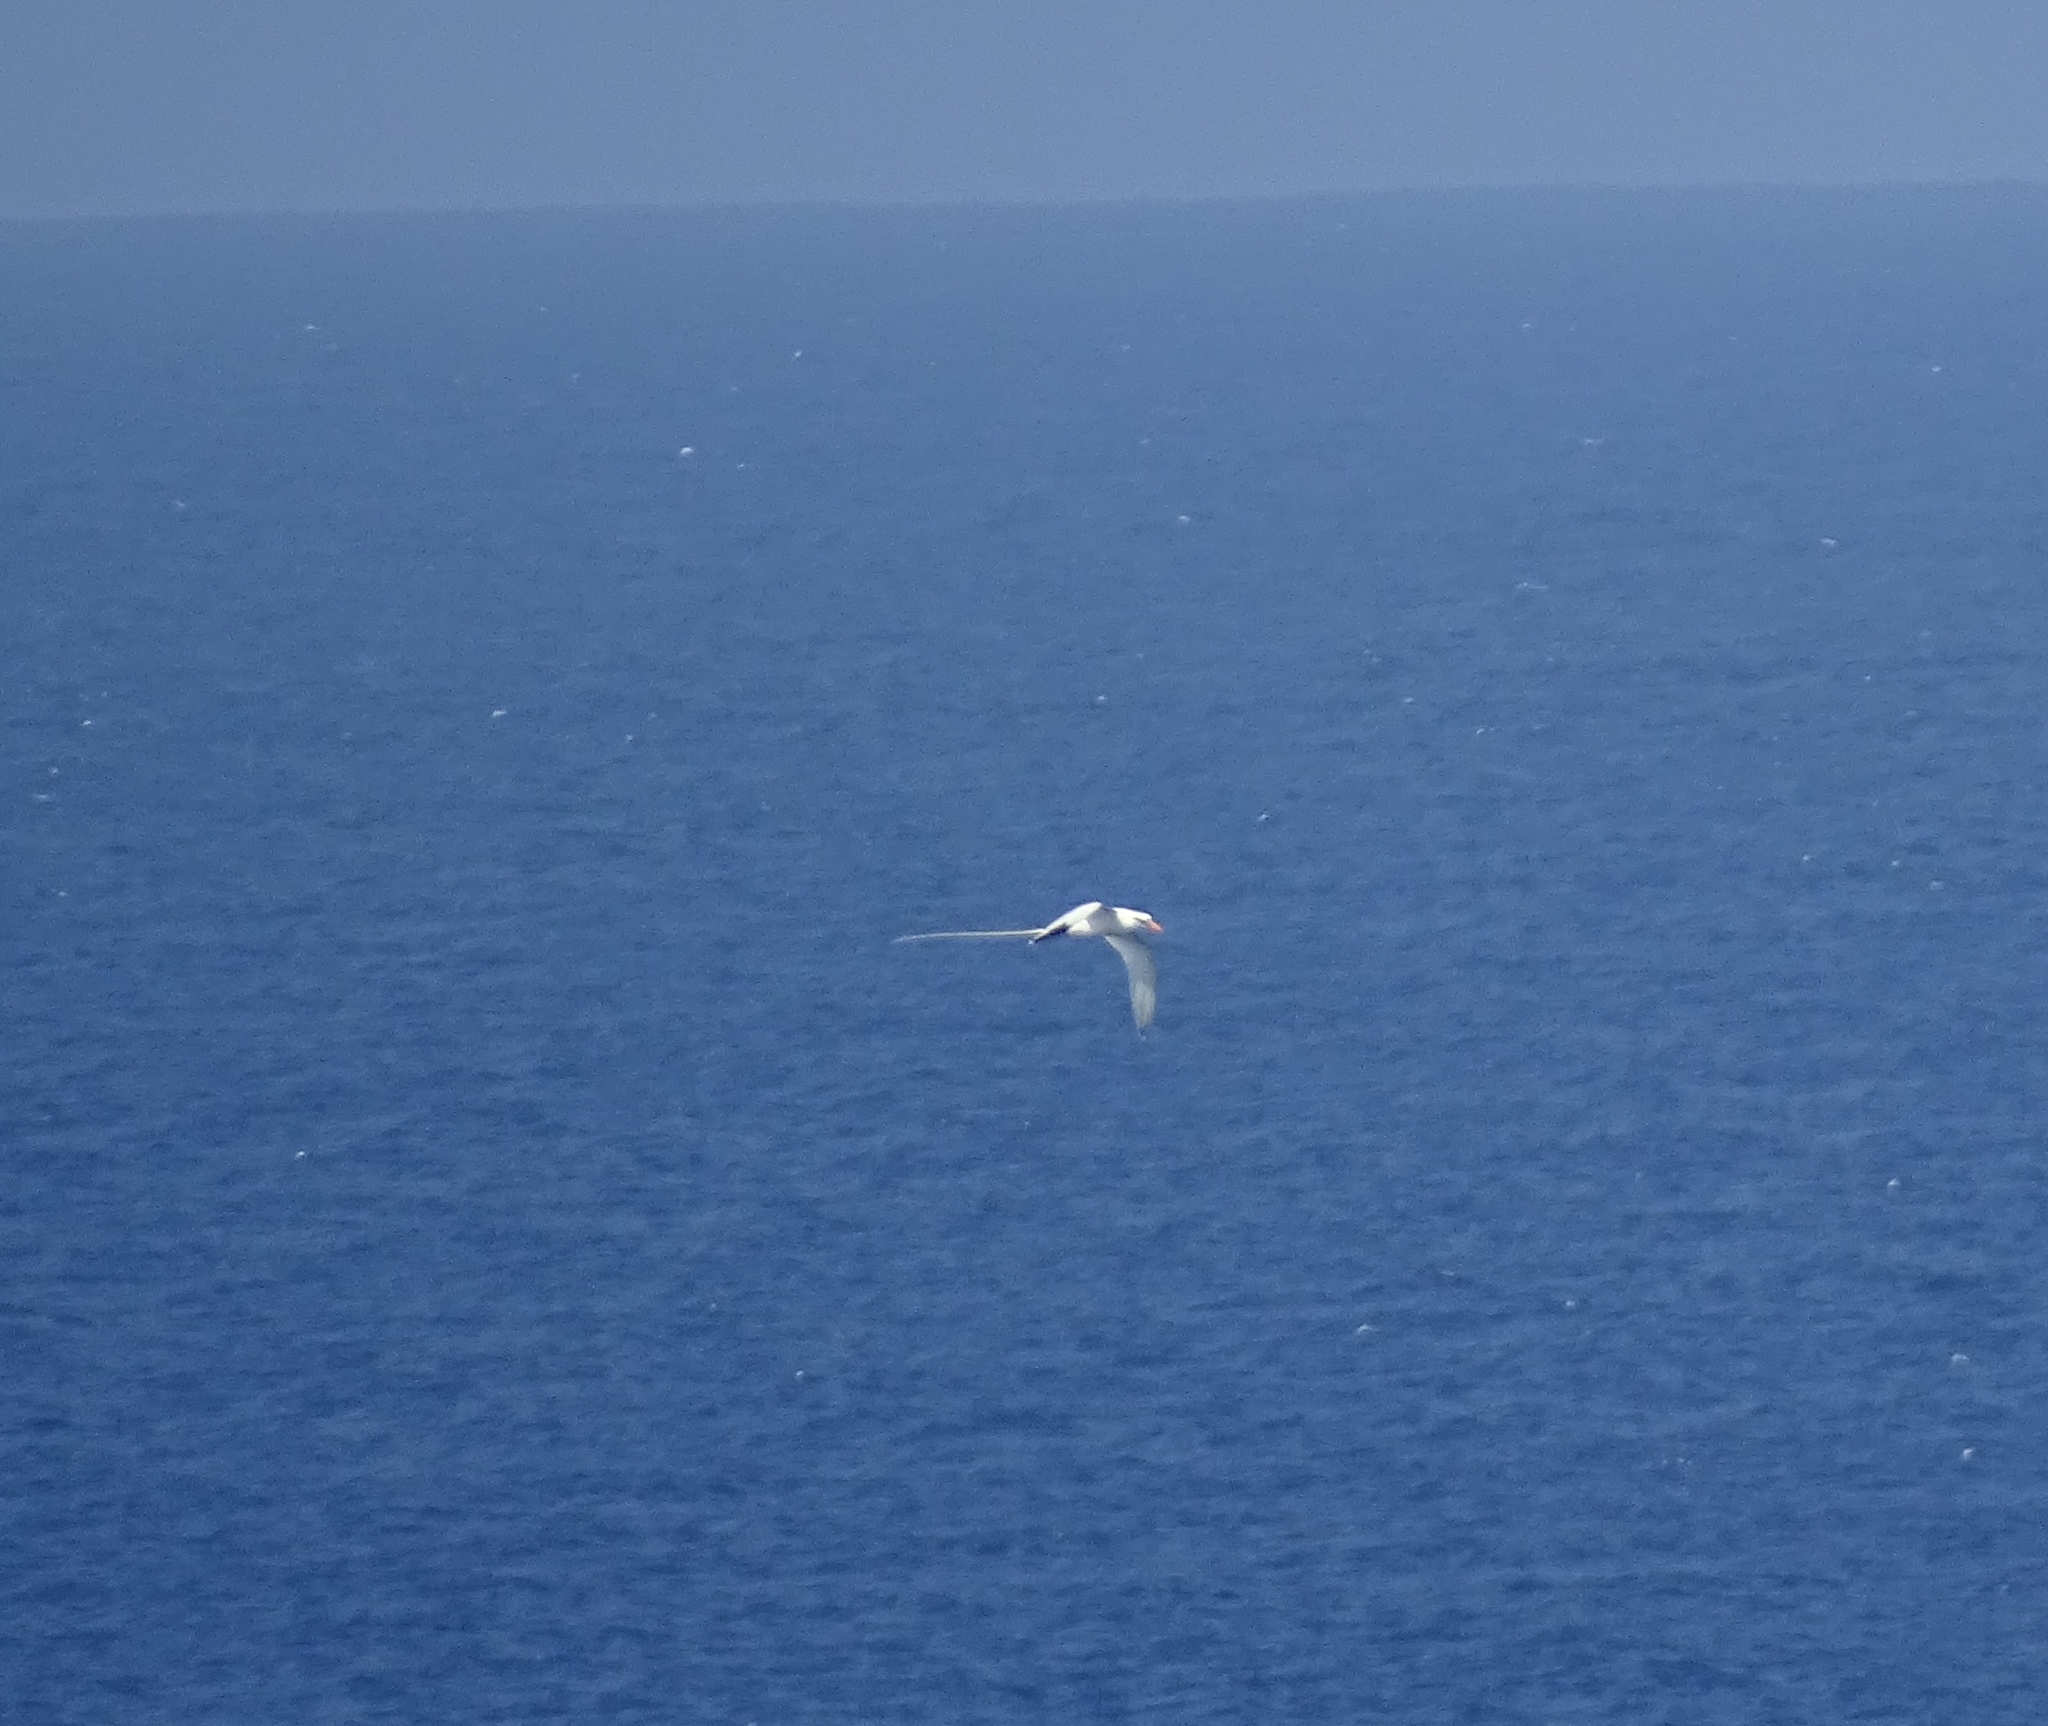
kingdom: Animalia
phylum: Chordata
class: Aves
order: Phaethontiformes
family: Phaethontidae
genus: Phaethon
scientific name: Phaethon lepturus
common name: White-tailed tropicbird
